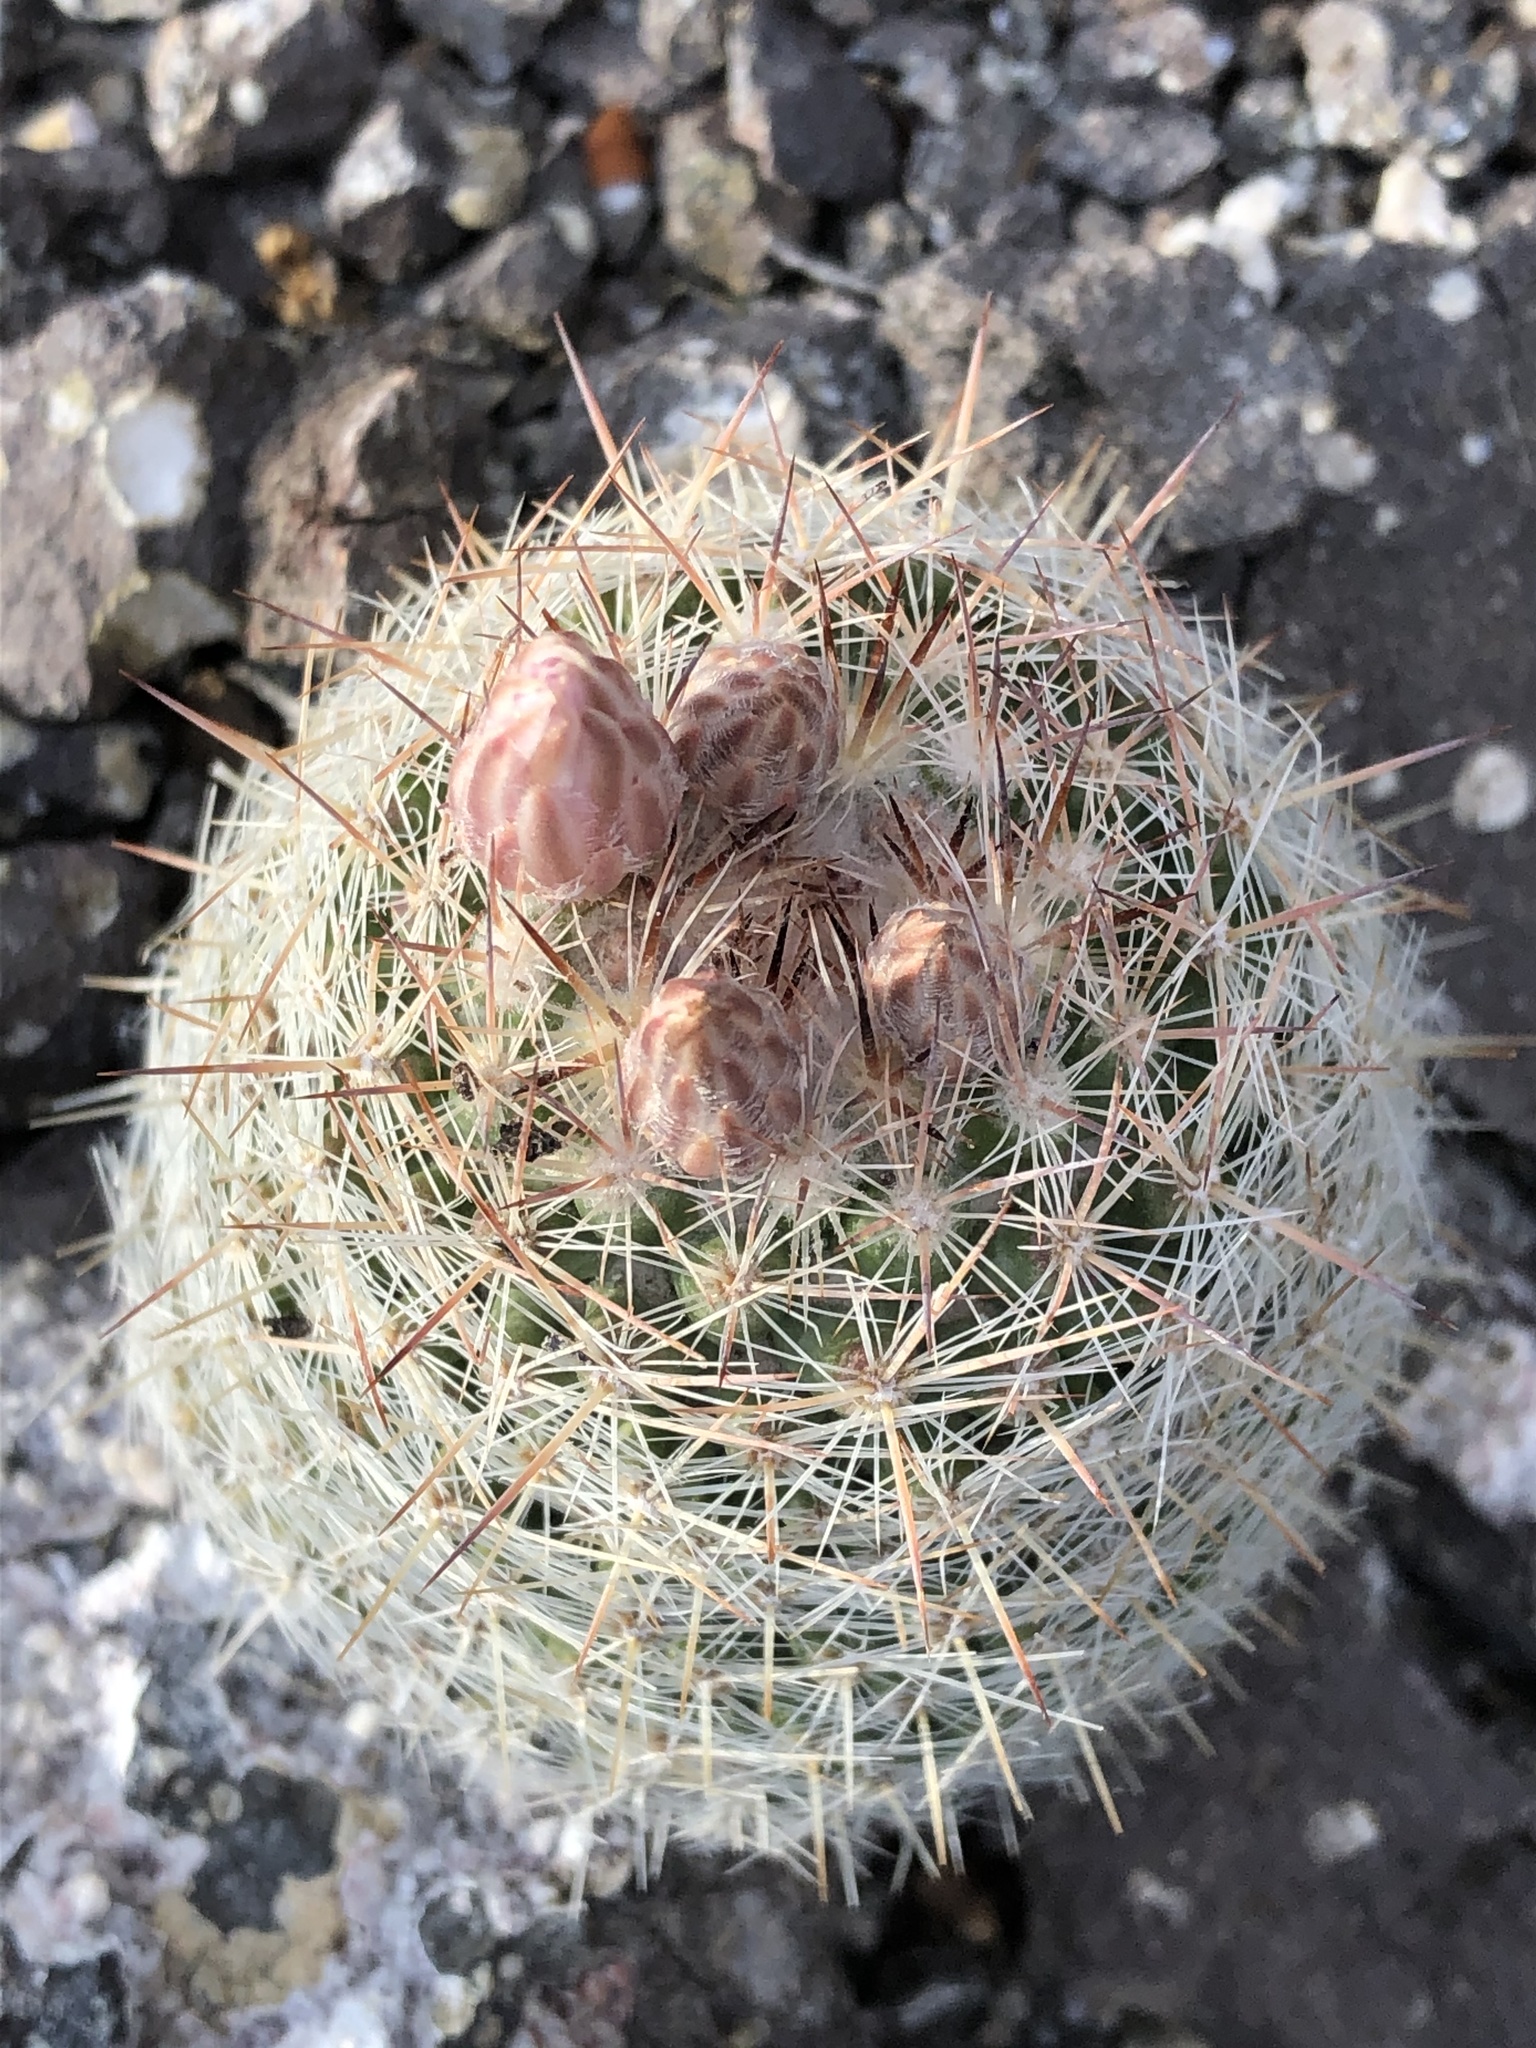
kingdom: Plantae
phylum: Tracheophyta
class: Magnoliopsida
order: Caryophyllales
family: Cactaceae
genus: Pelecyphora
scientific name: Pelecyphora tuberculosa
